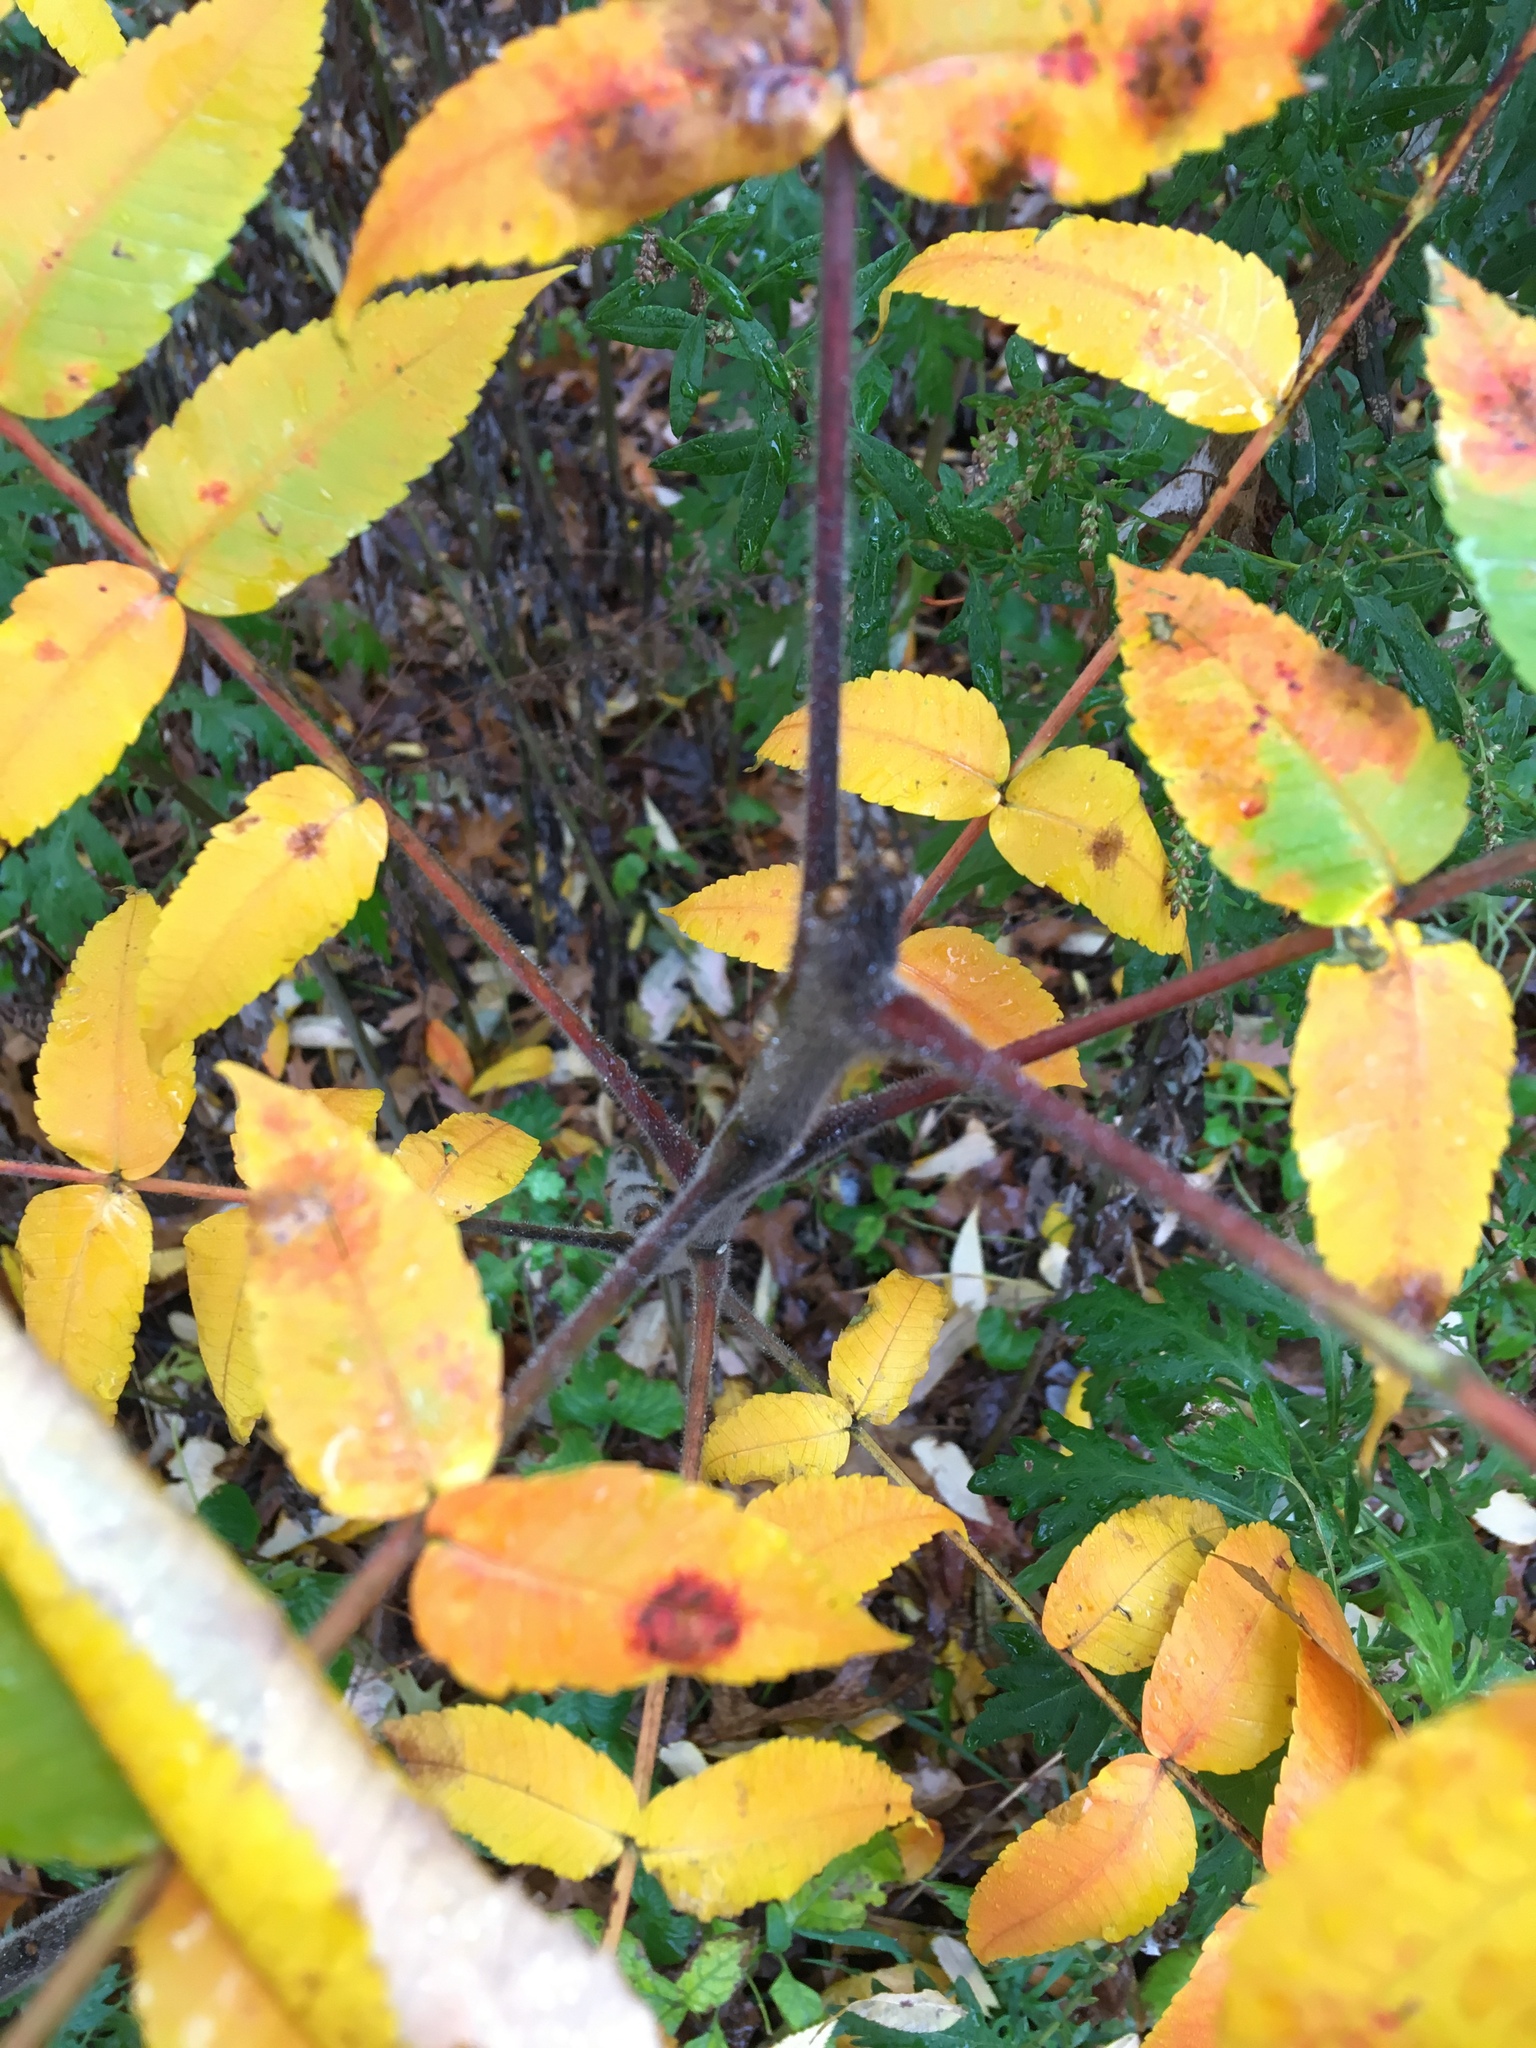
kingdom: Plantae
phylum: Tracheophyta
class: Magnoliopsida
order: Sapindales
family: Anacardiaceae
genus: Rhus
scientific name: Rhus typhina
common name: Staghorn sumac
